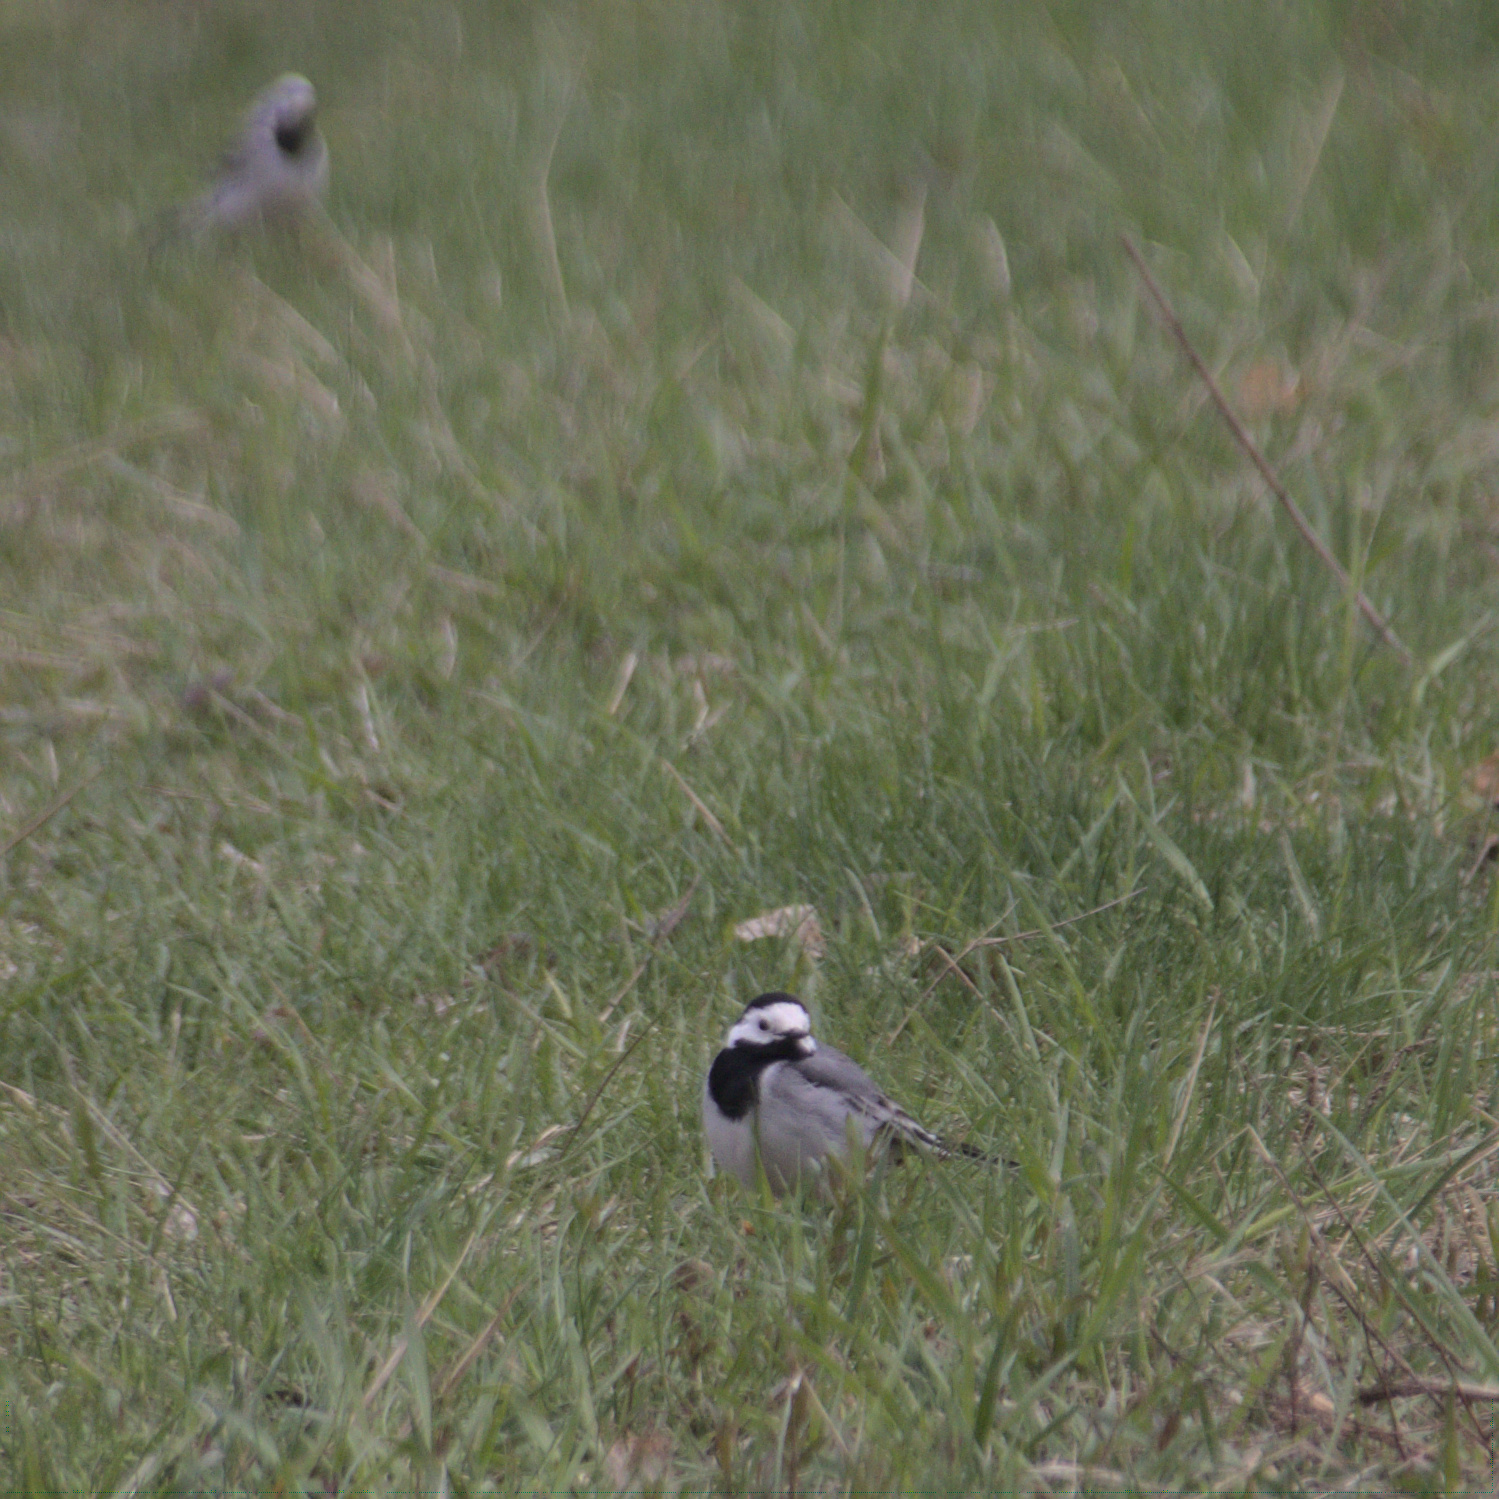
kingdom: Animalia
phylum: Chordata
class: Aves
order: Passeriformes
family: Motacillidae
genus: Motacilla
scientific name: Motacilla alba
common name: White wagtail
